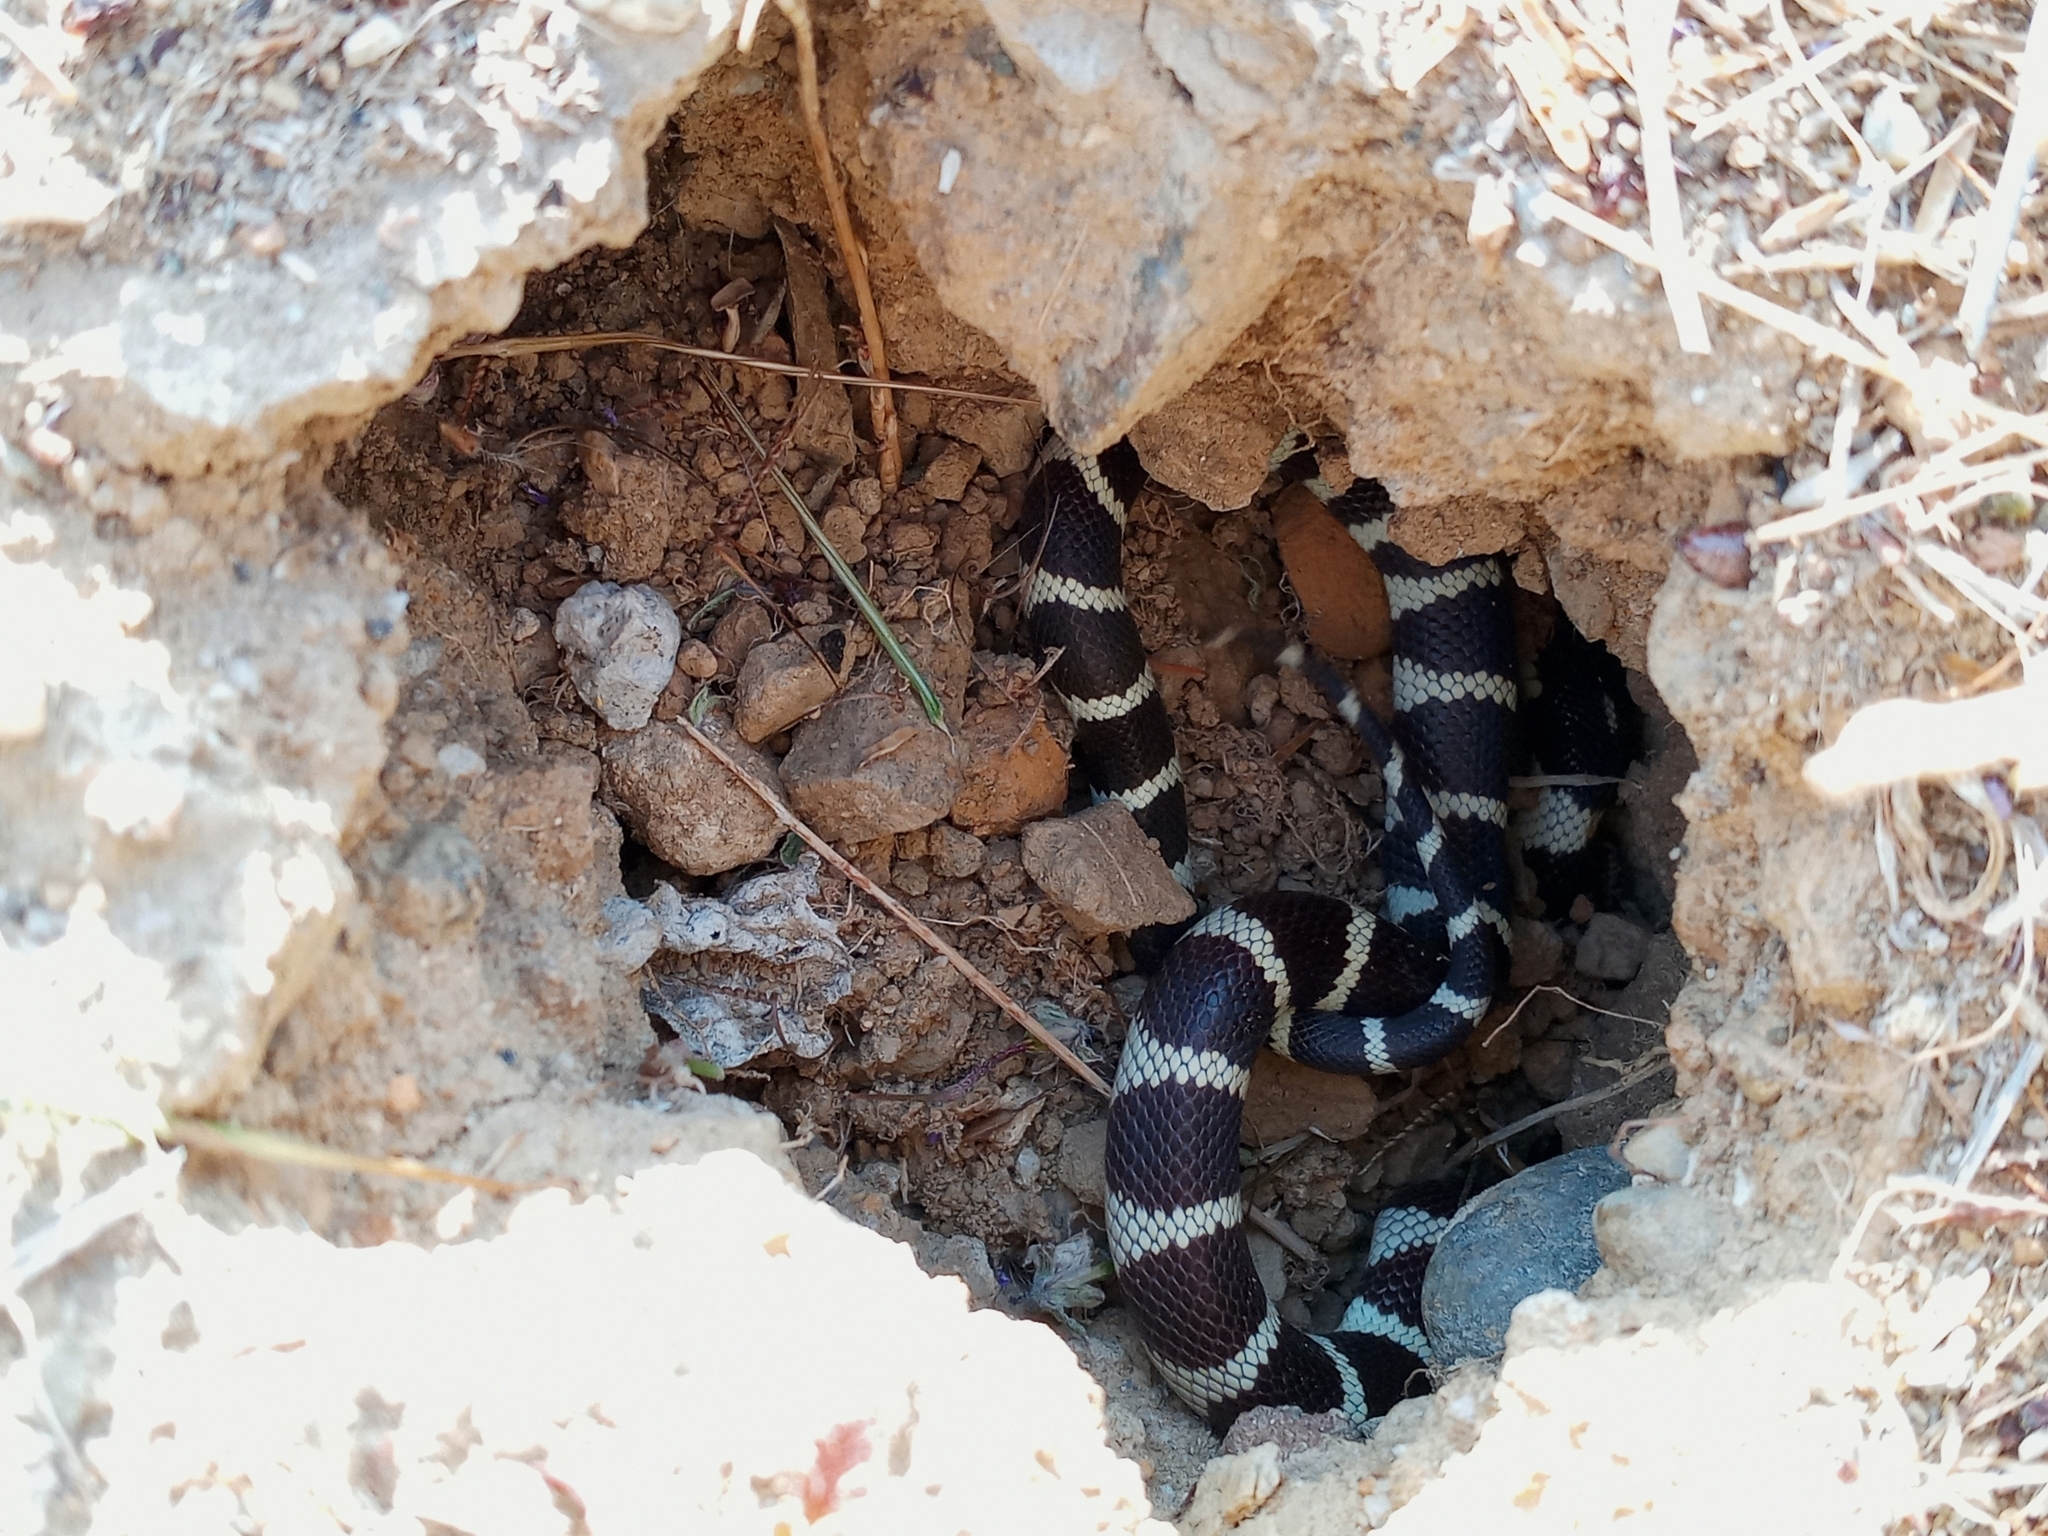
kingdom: Animalia
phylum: Chordata
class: Squamata
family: Colubridae
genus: Lampropeltis
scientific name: Lampropeltis californiae
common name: California kingsnake
